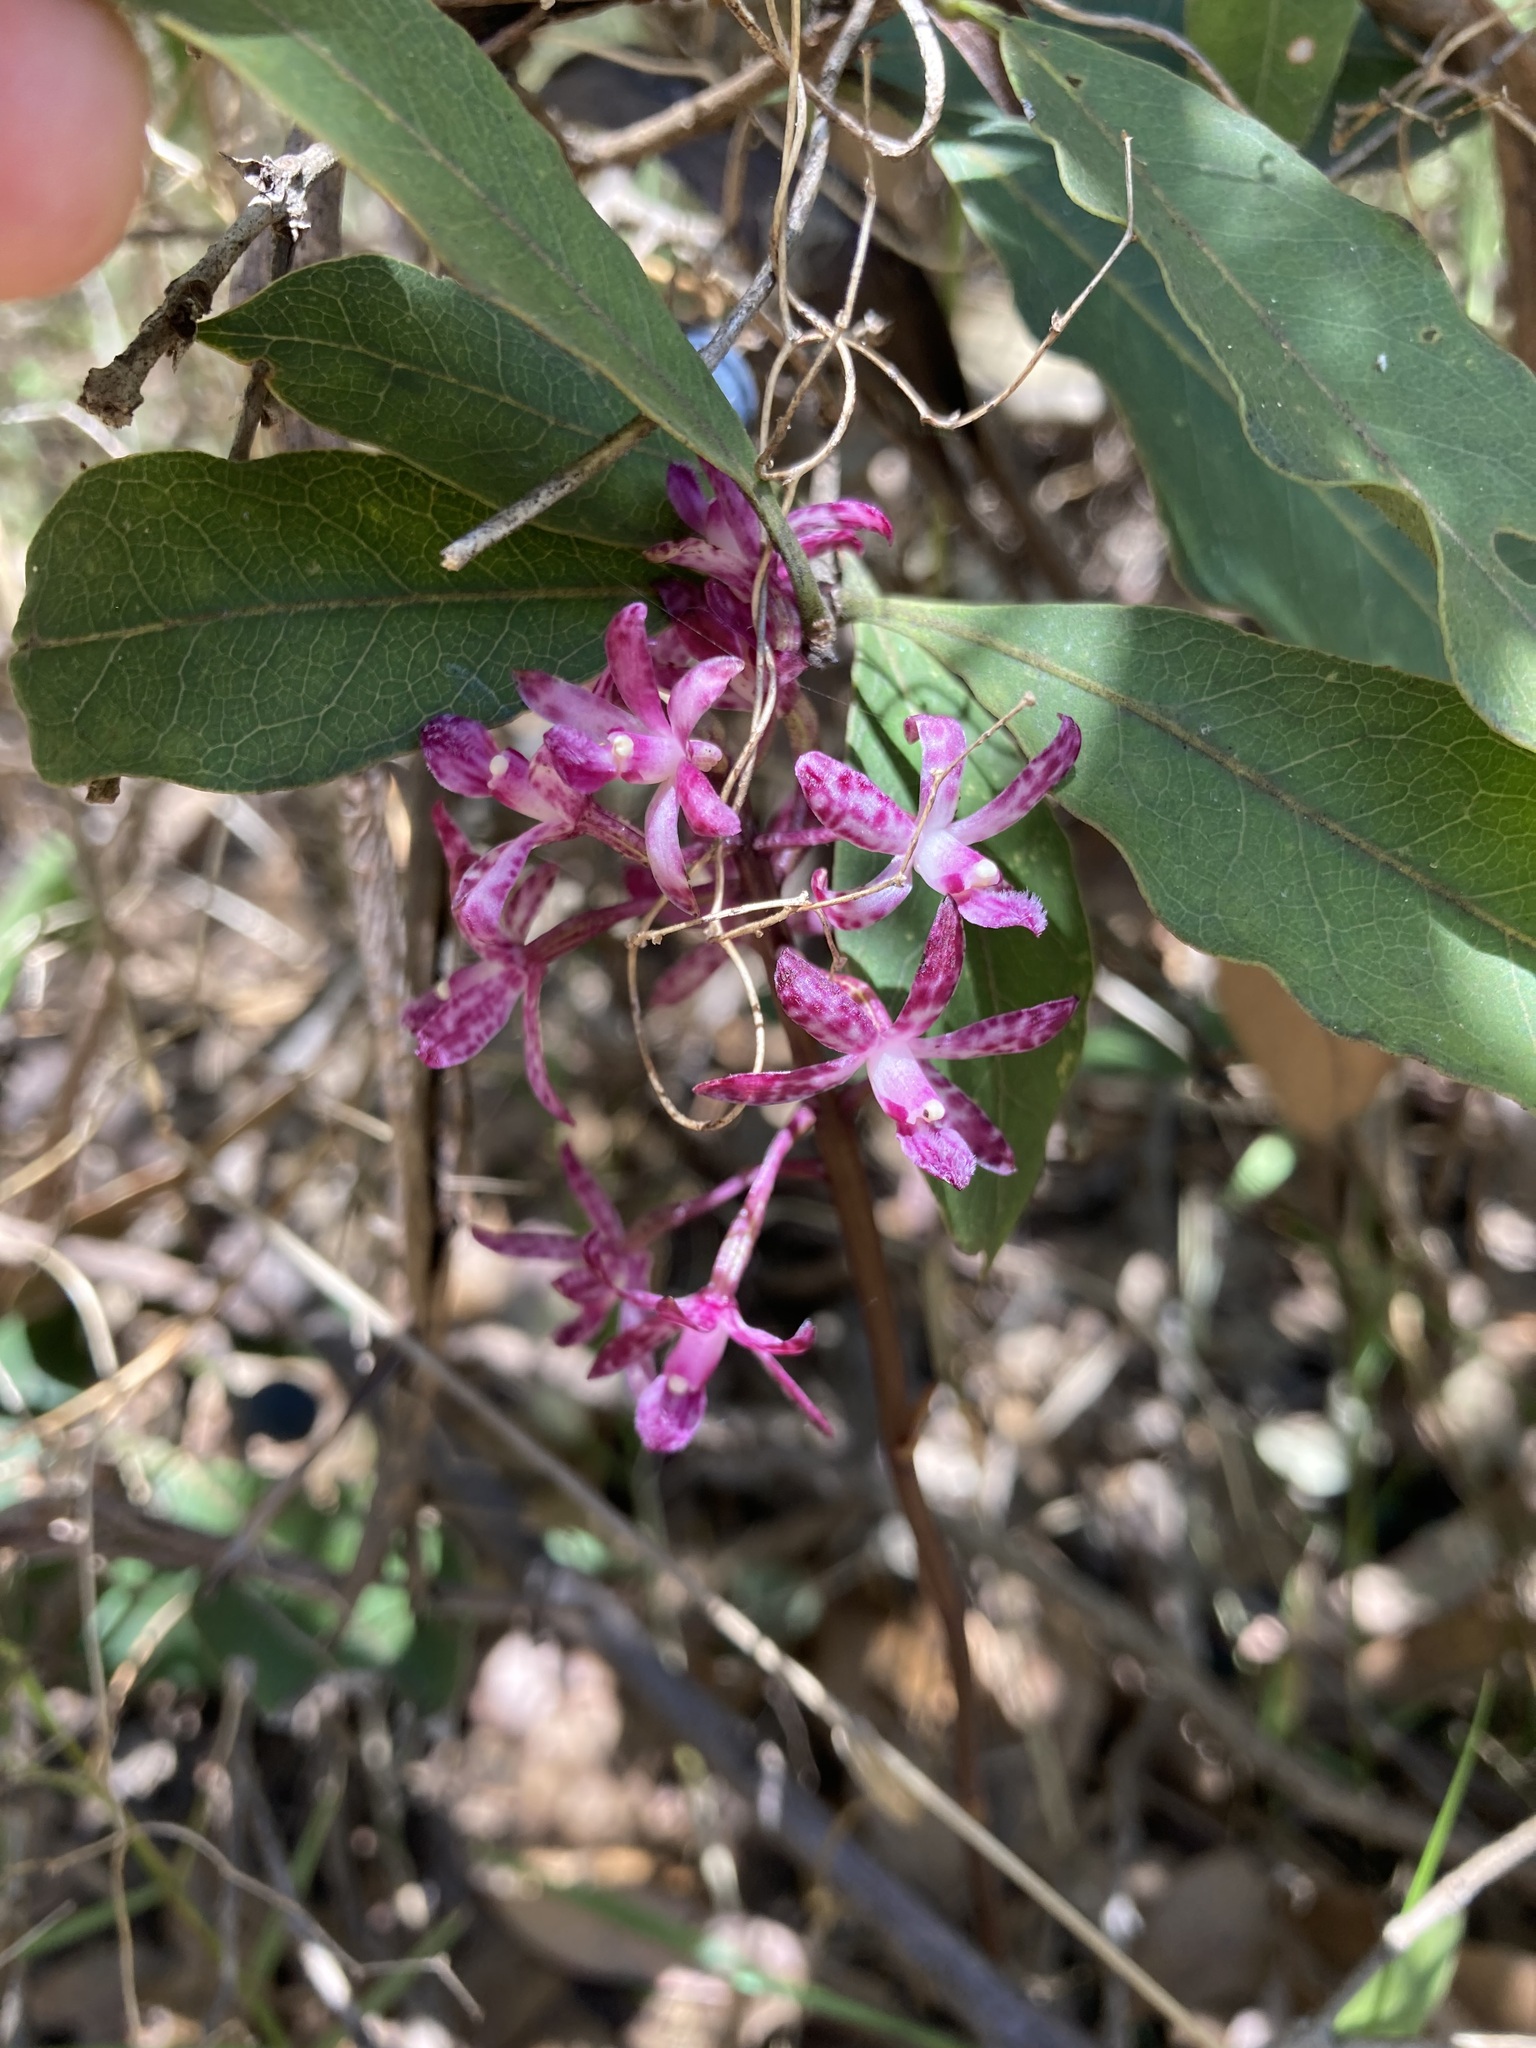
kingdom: Plantae
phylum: Tracheophyta
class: Liliopsida
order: Asparagales
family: Orchidaceae
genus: Dipodium
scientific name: Dipodium squamatum
